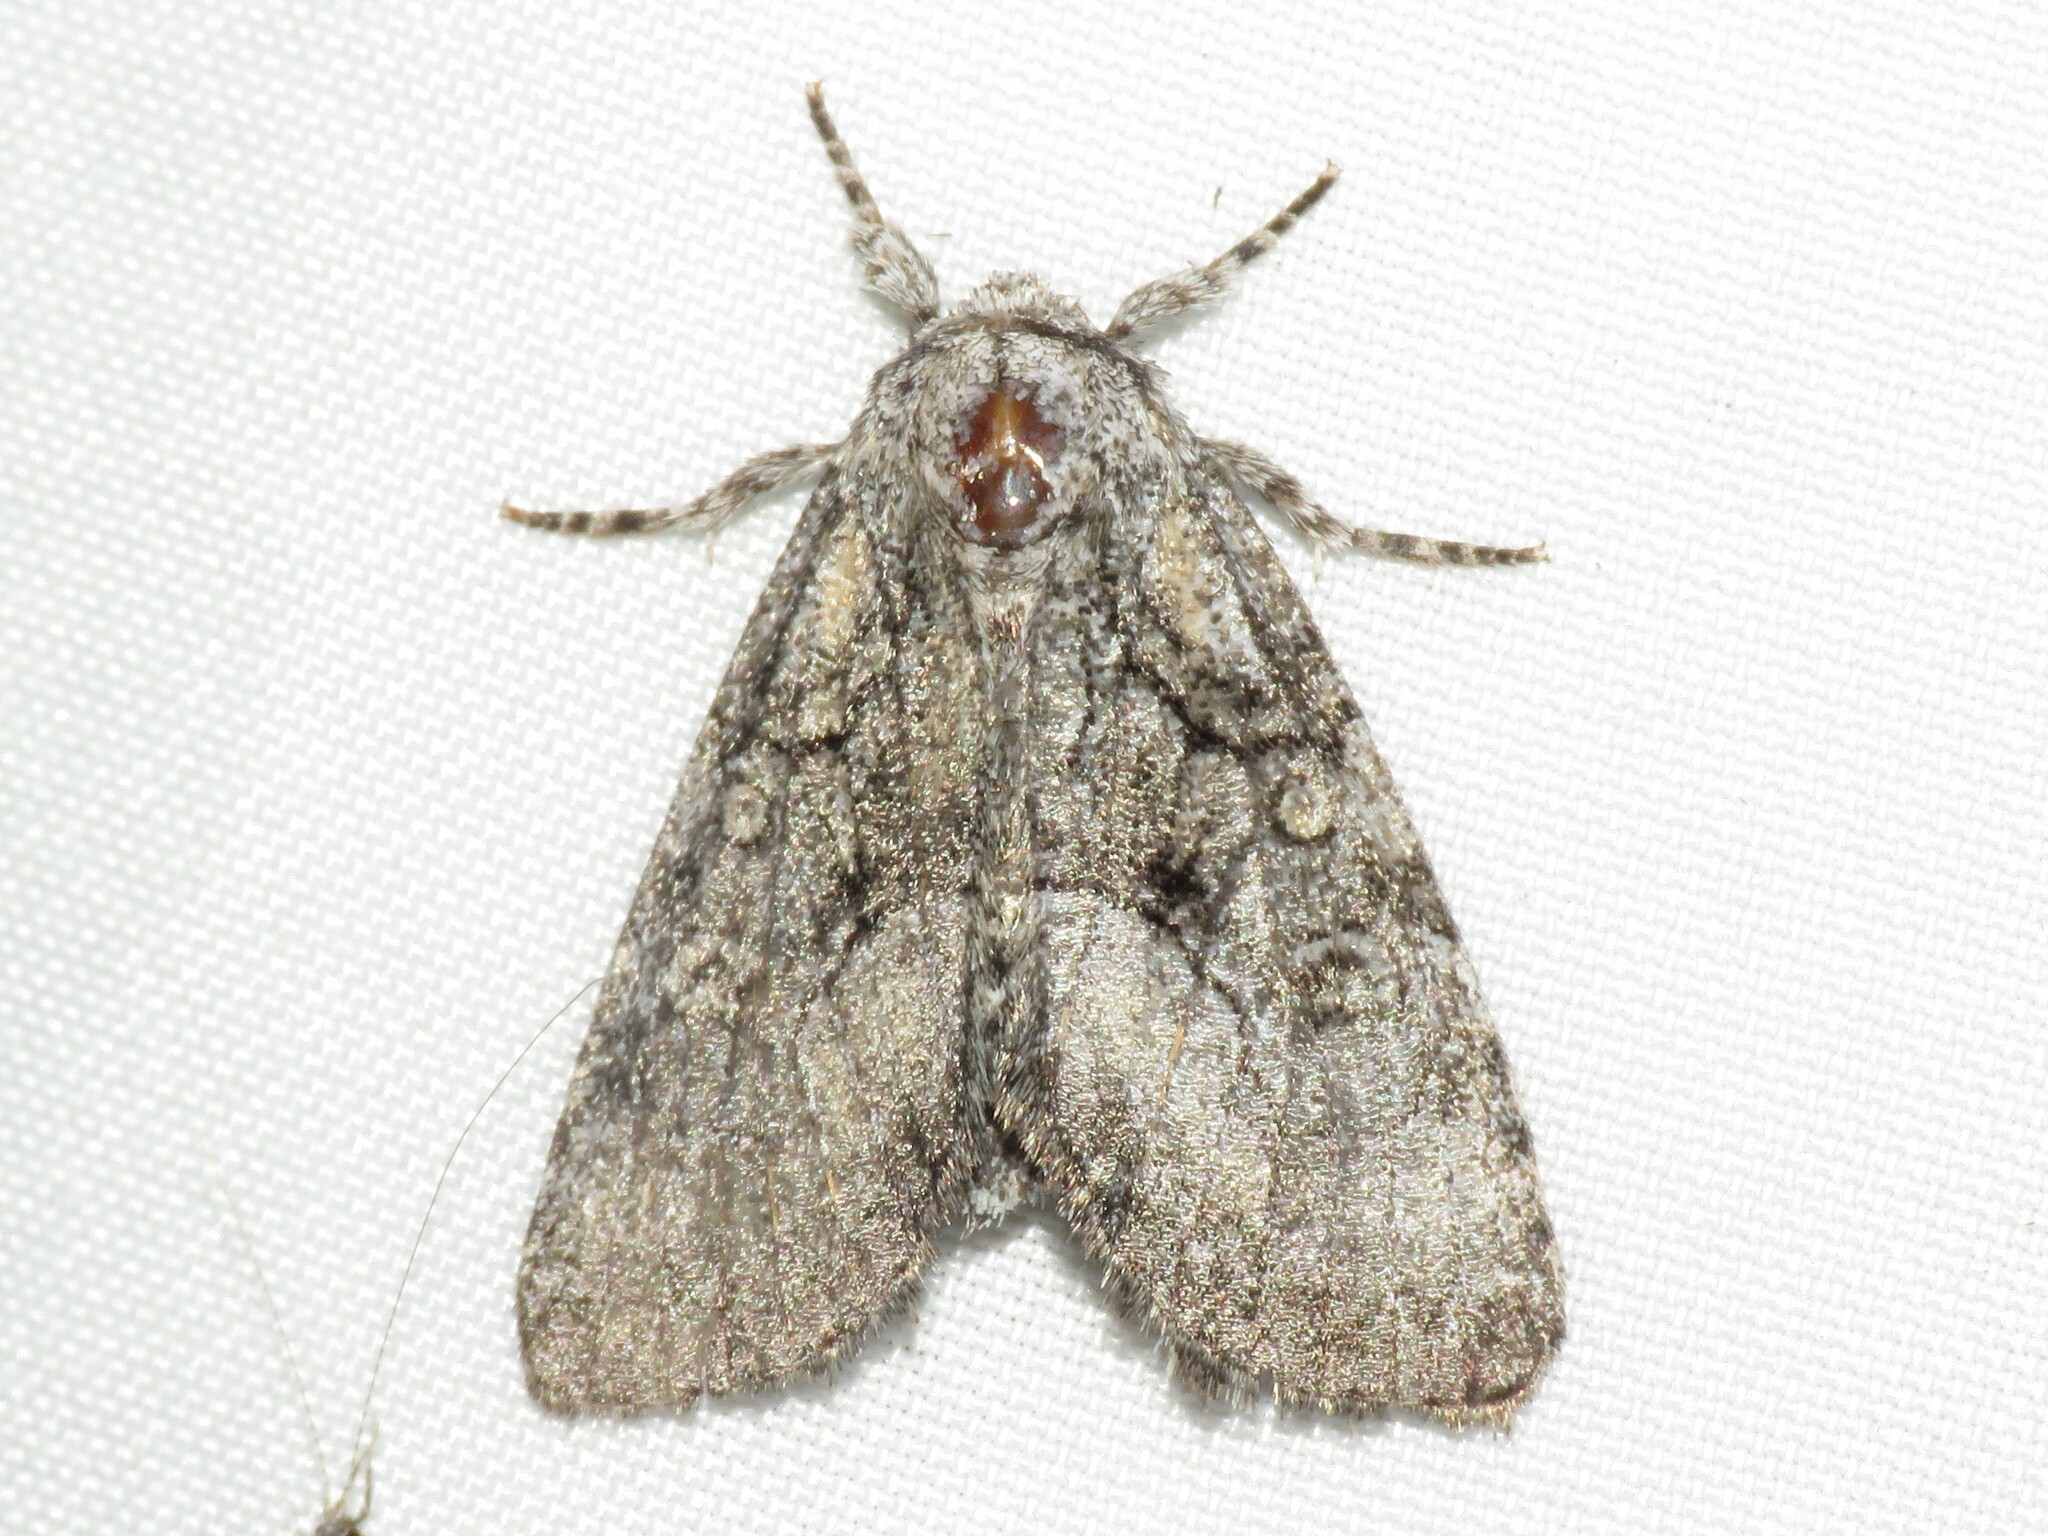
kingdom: Animalia
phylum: Arthropoda
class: Insecta
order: Lepidoptera
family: Noctuidae
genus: Raphia
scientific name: Raphia frater
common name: Brother
